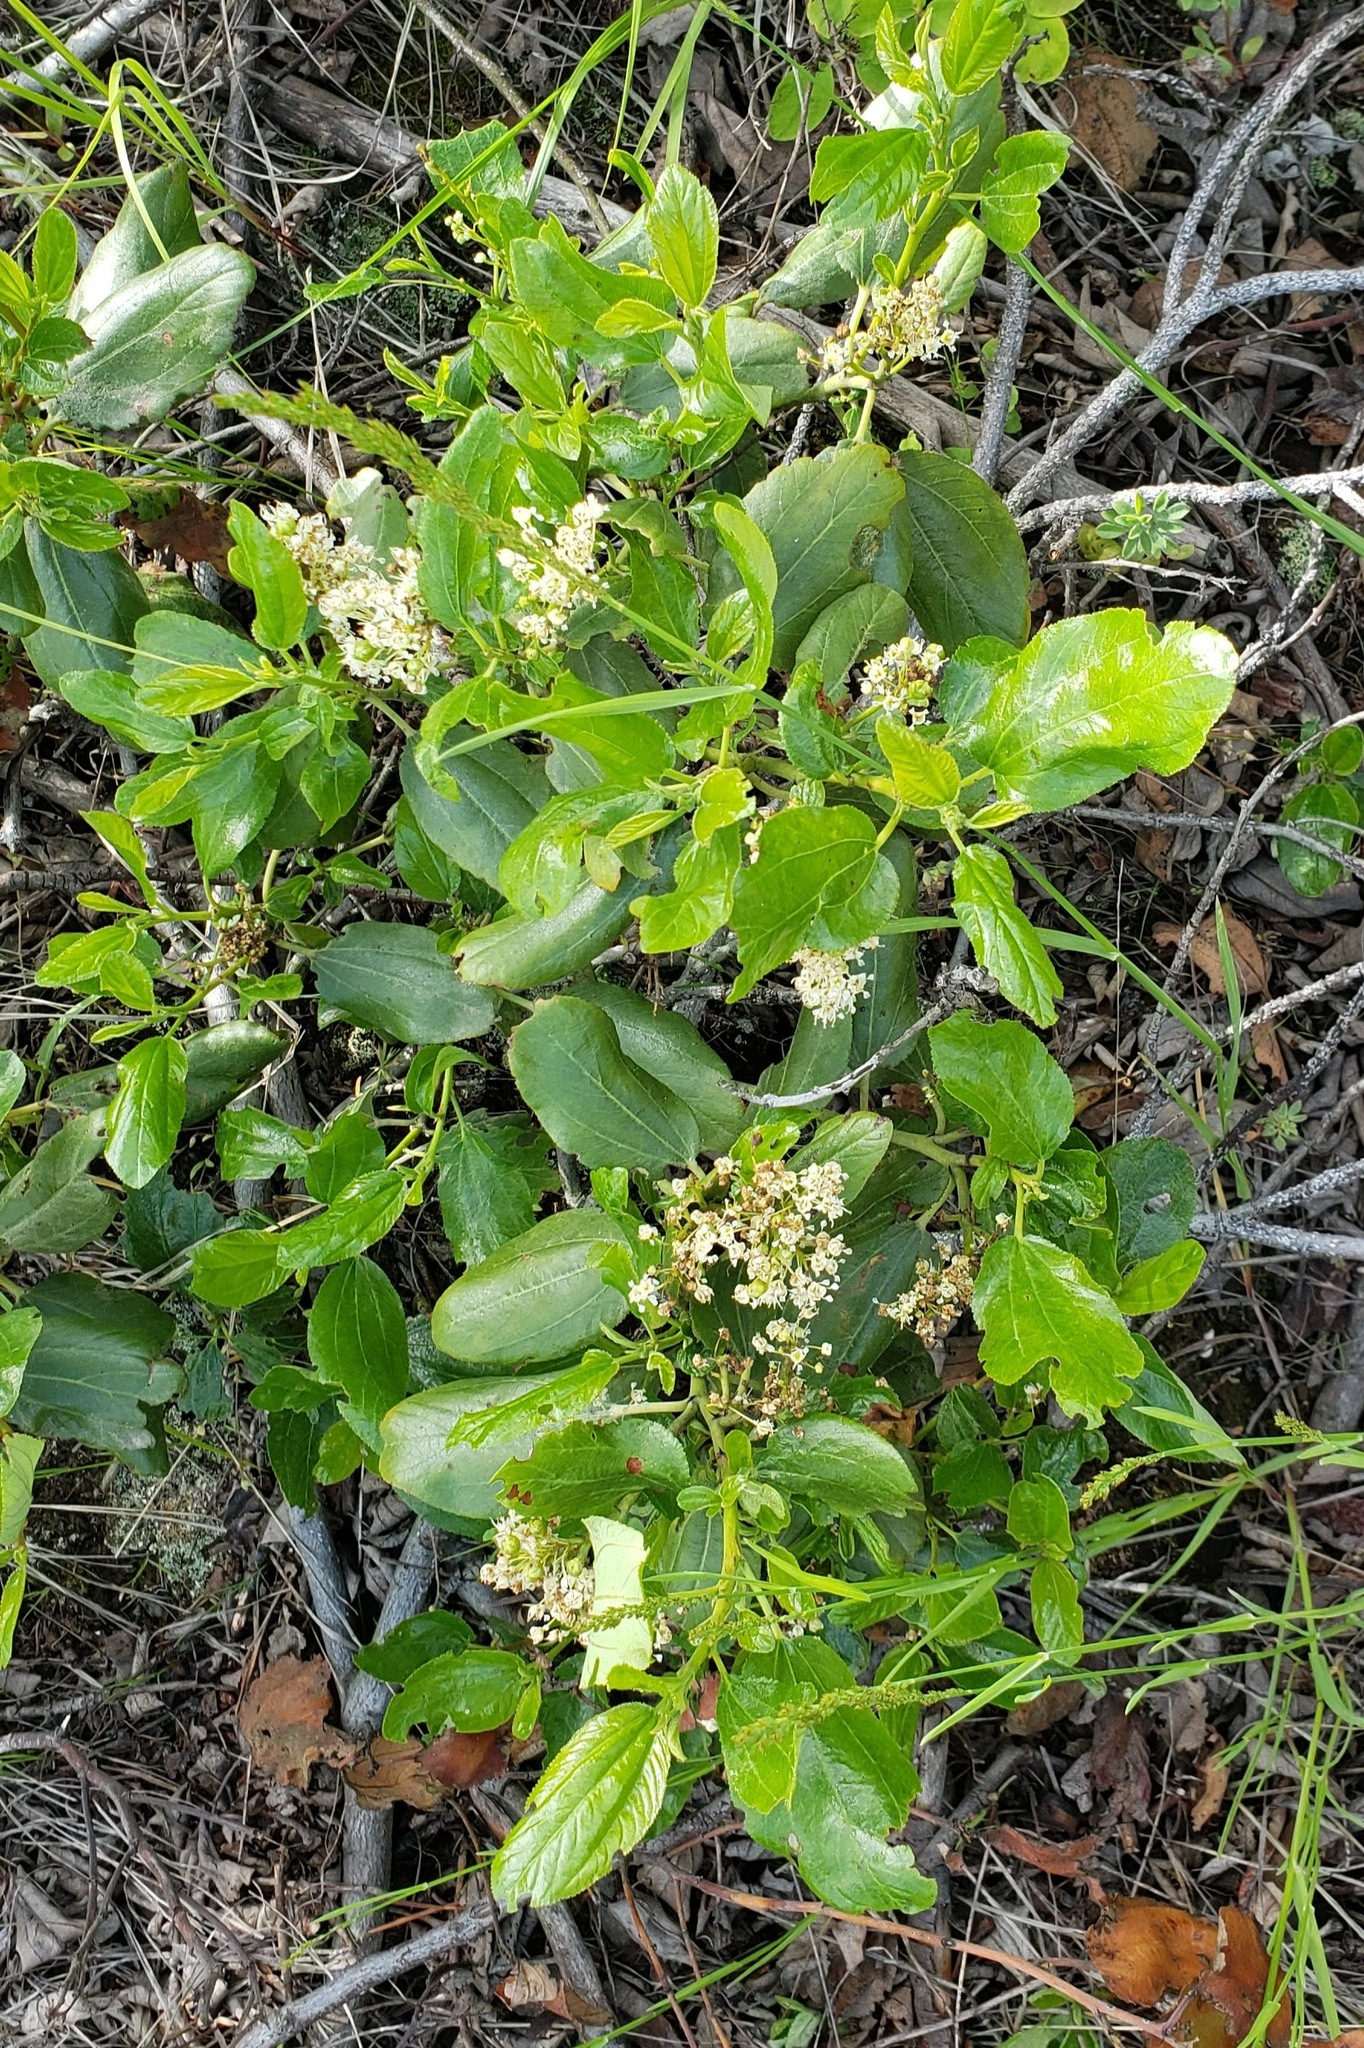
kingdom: Plantae
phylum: Tracheophyta
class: Magnoliopsida
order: Rosales
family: Rhamnaceae
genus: Ceanothus
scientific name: Ceanothus velutinus
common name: Snowbrush
